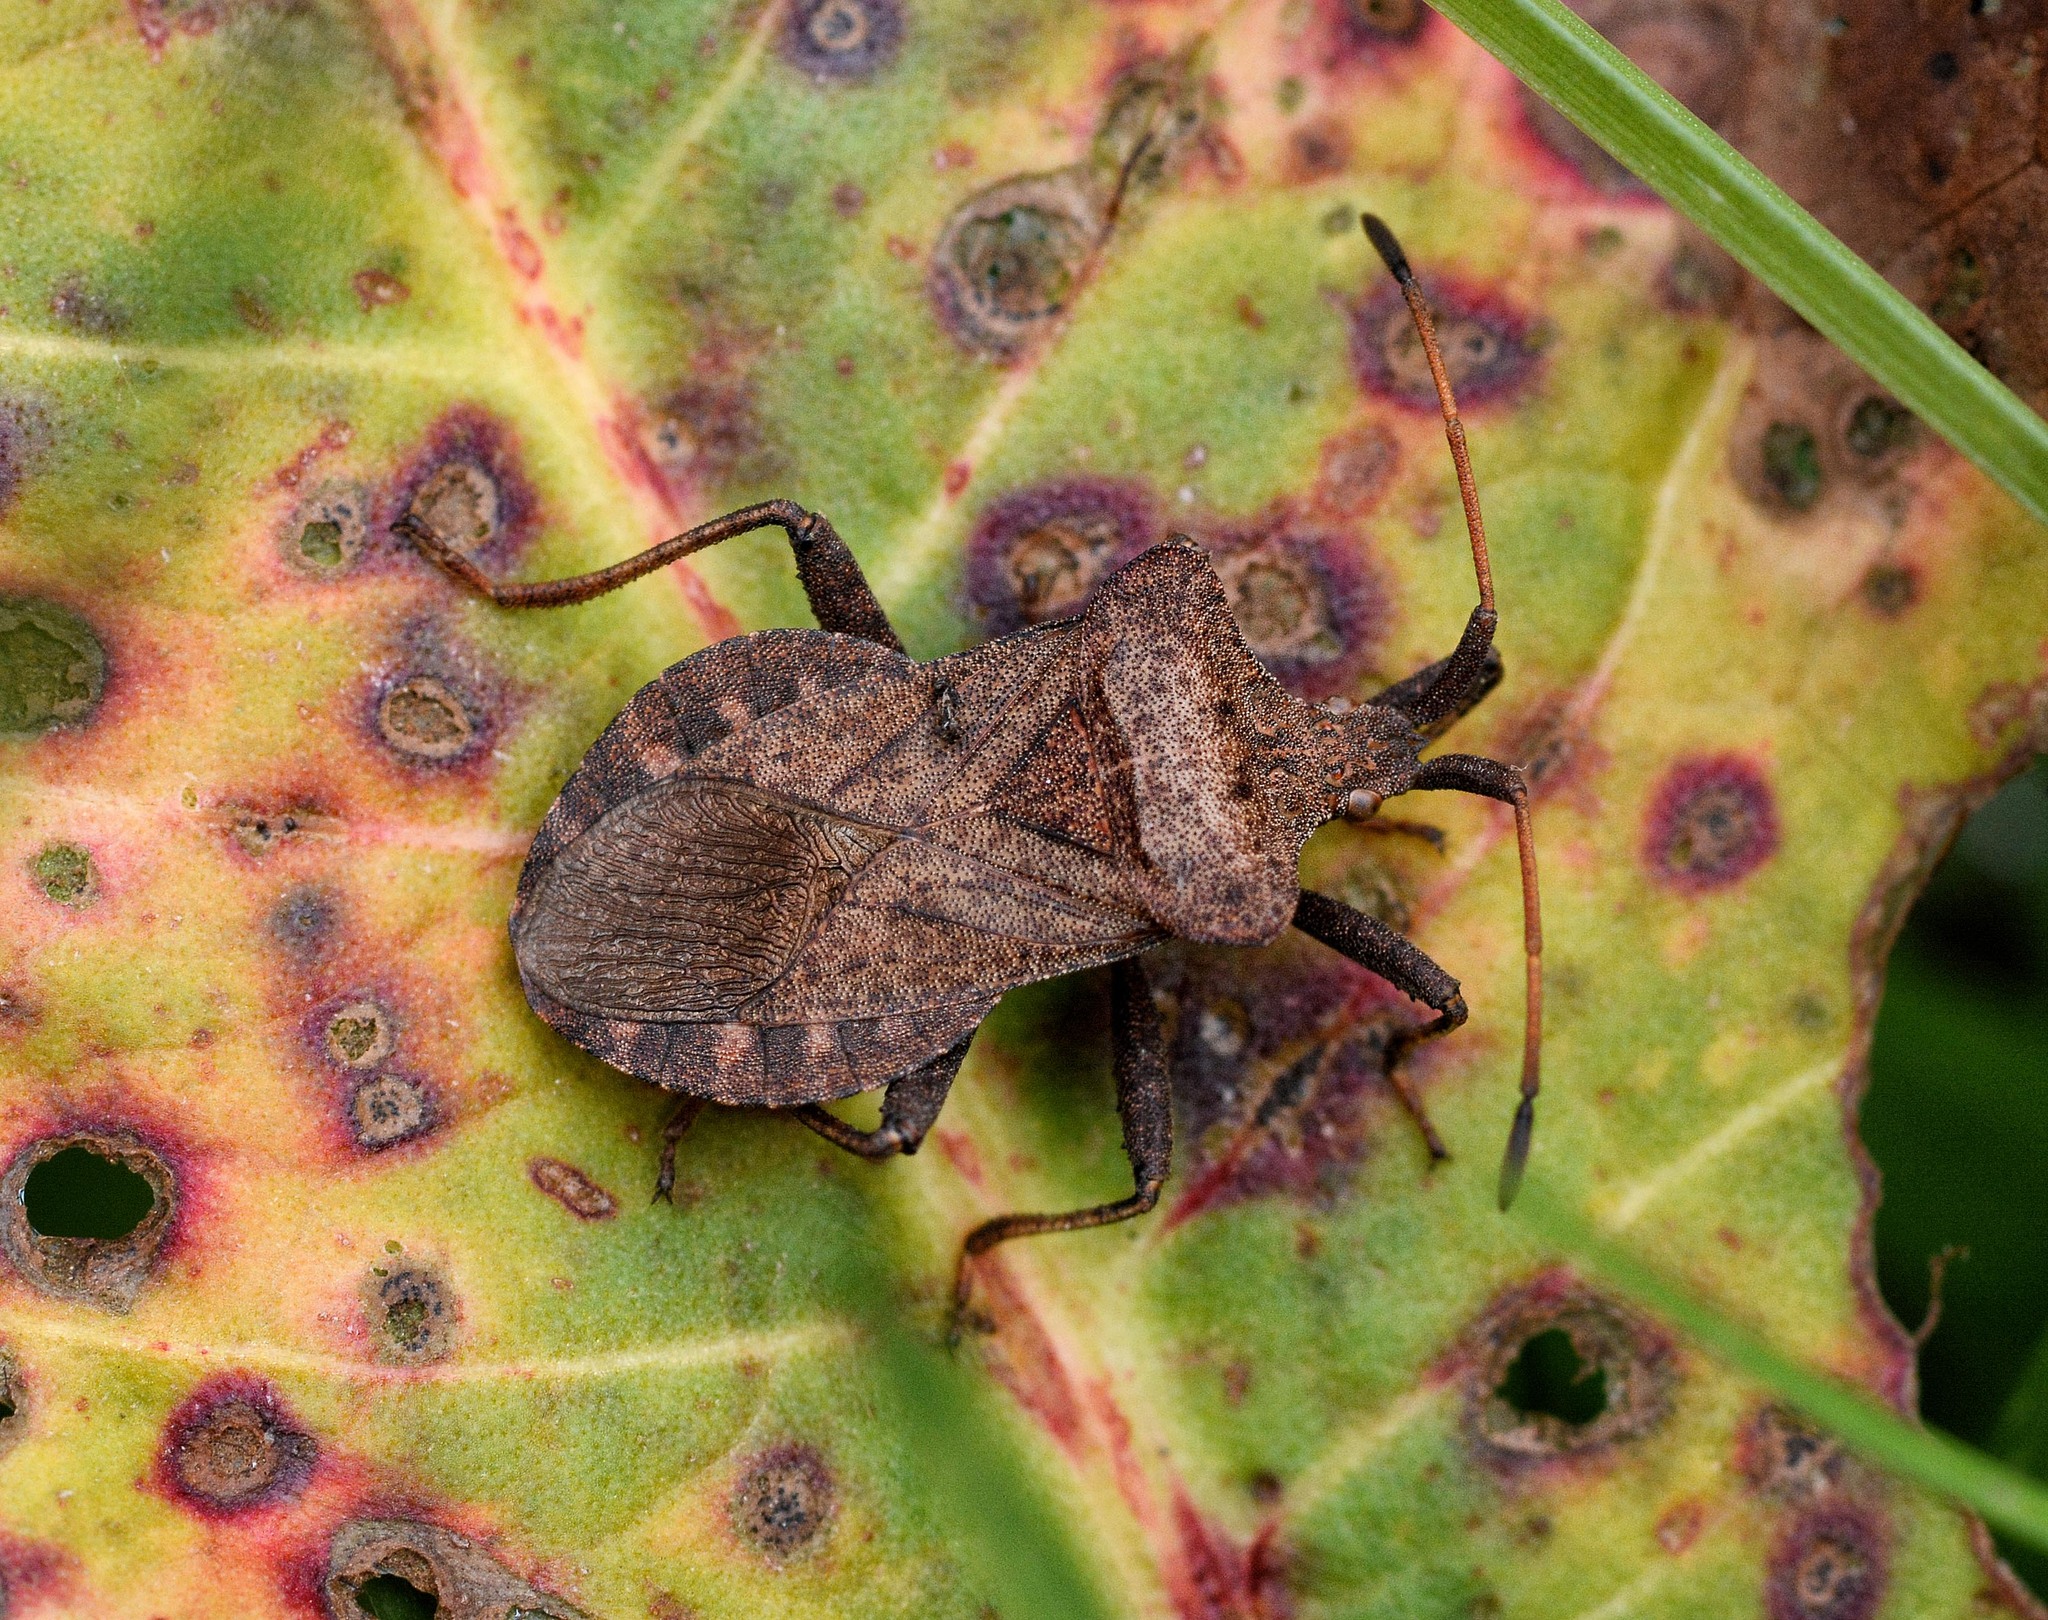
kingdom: Animalia
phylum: Arthropoda
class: Insecta
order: Hemiptera
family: Coreidae
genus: Coreus
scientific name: Coreus marginatus
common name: Dock bug
